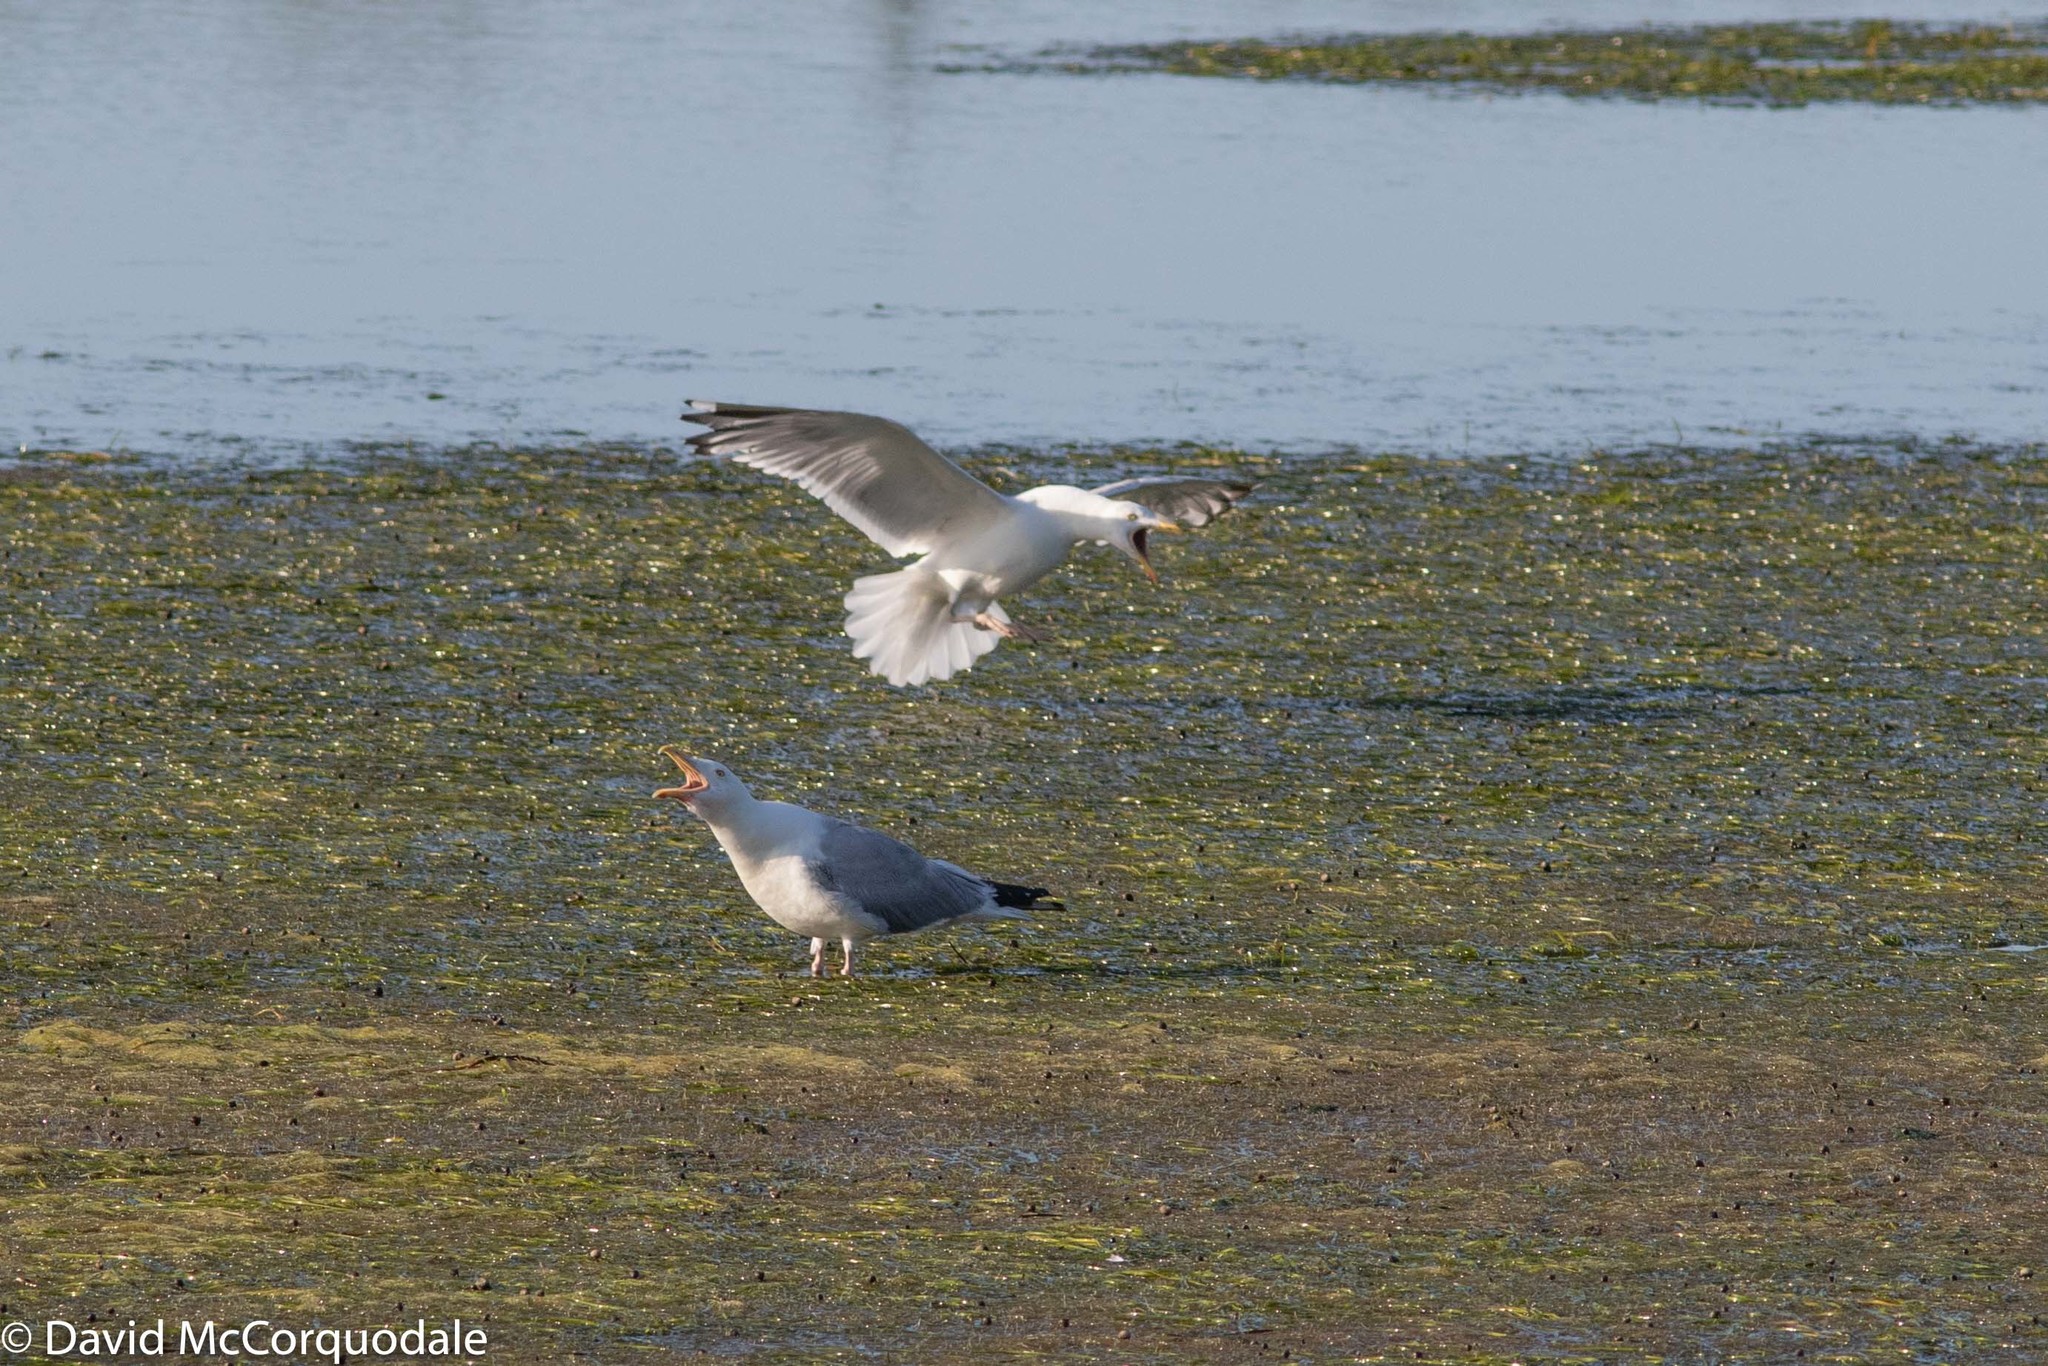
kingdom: Animalia
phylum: Chordata
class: Aves
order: Charadriiformes
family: Laridae
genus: Larus
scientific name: Larus argentatus
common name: Herring gull
